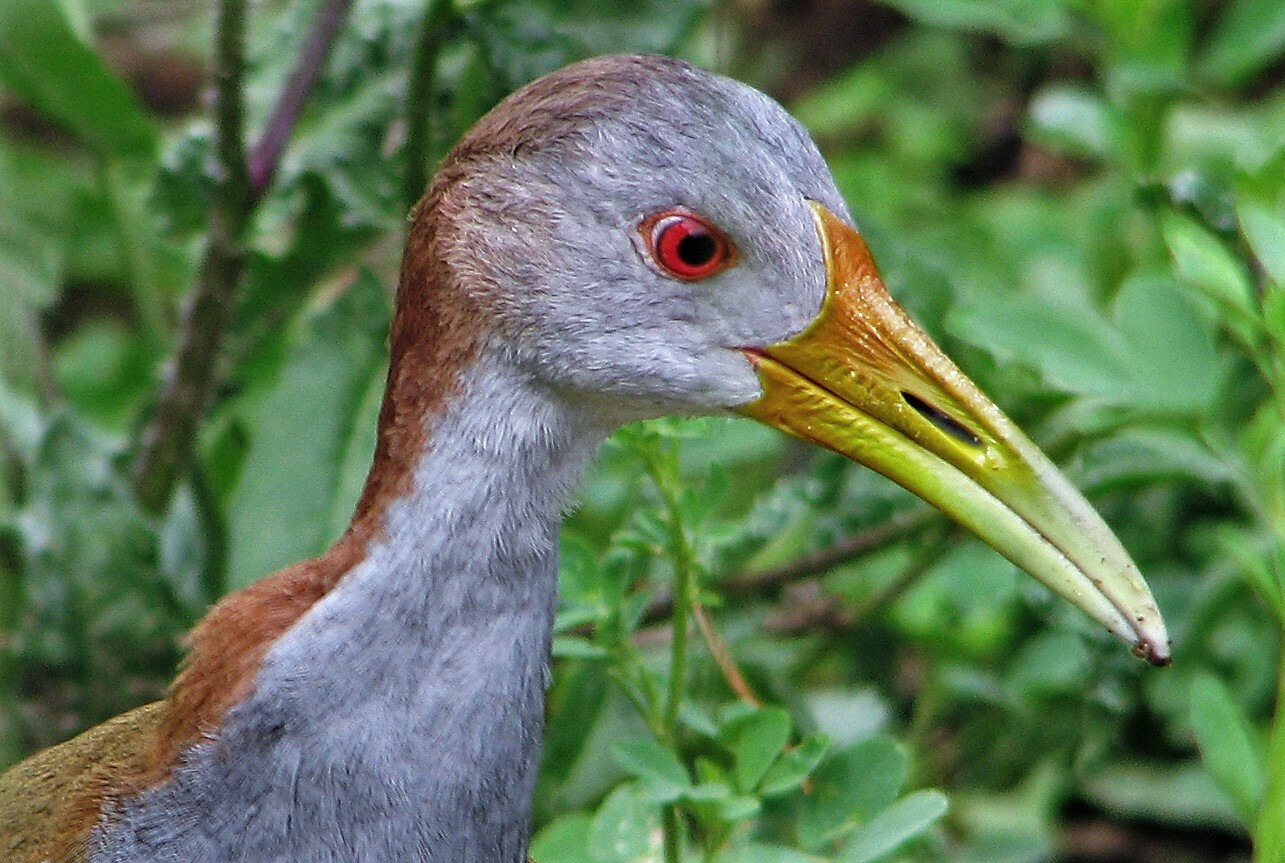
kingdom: Animalia
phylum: Chordata
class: Aves
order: Gruiformes
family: Rallidae
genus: Aramides
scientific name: Aramides ypecaha
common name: Giant wood rail
